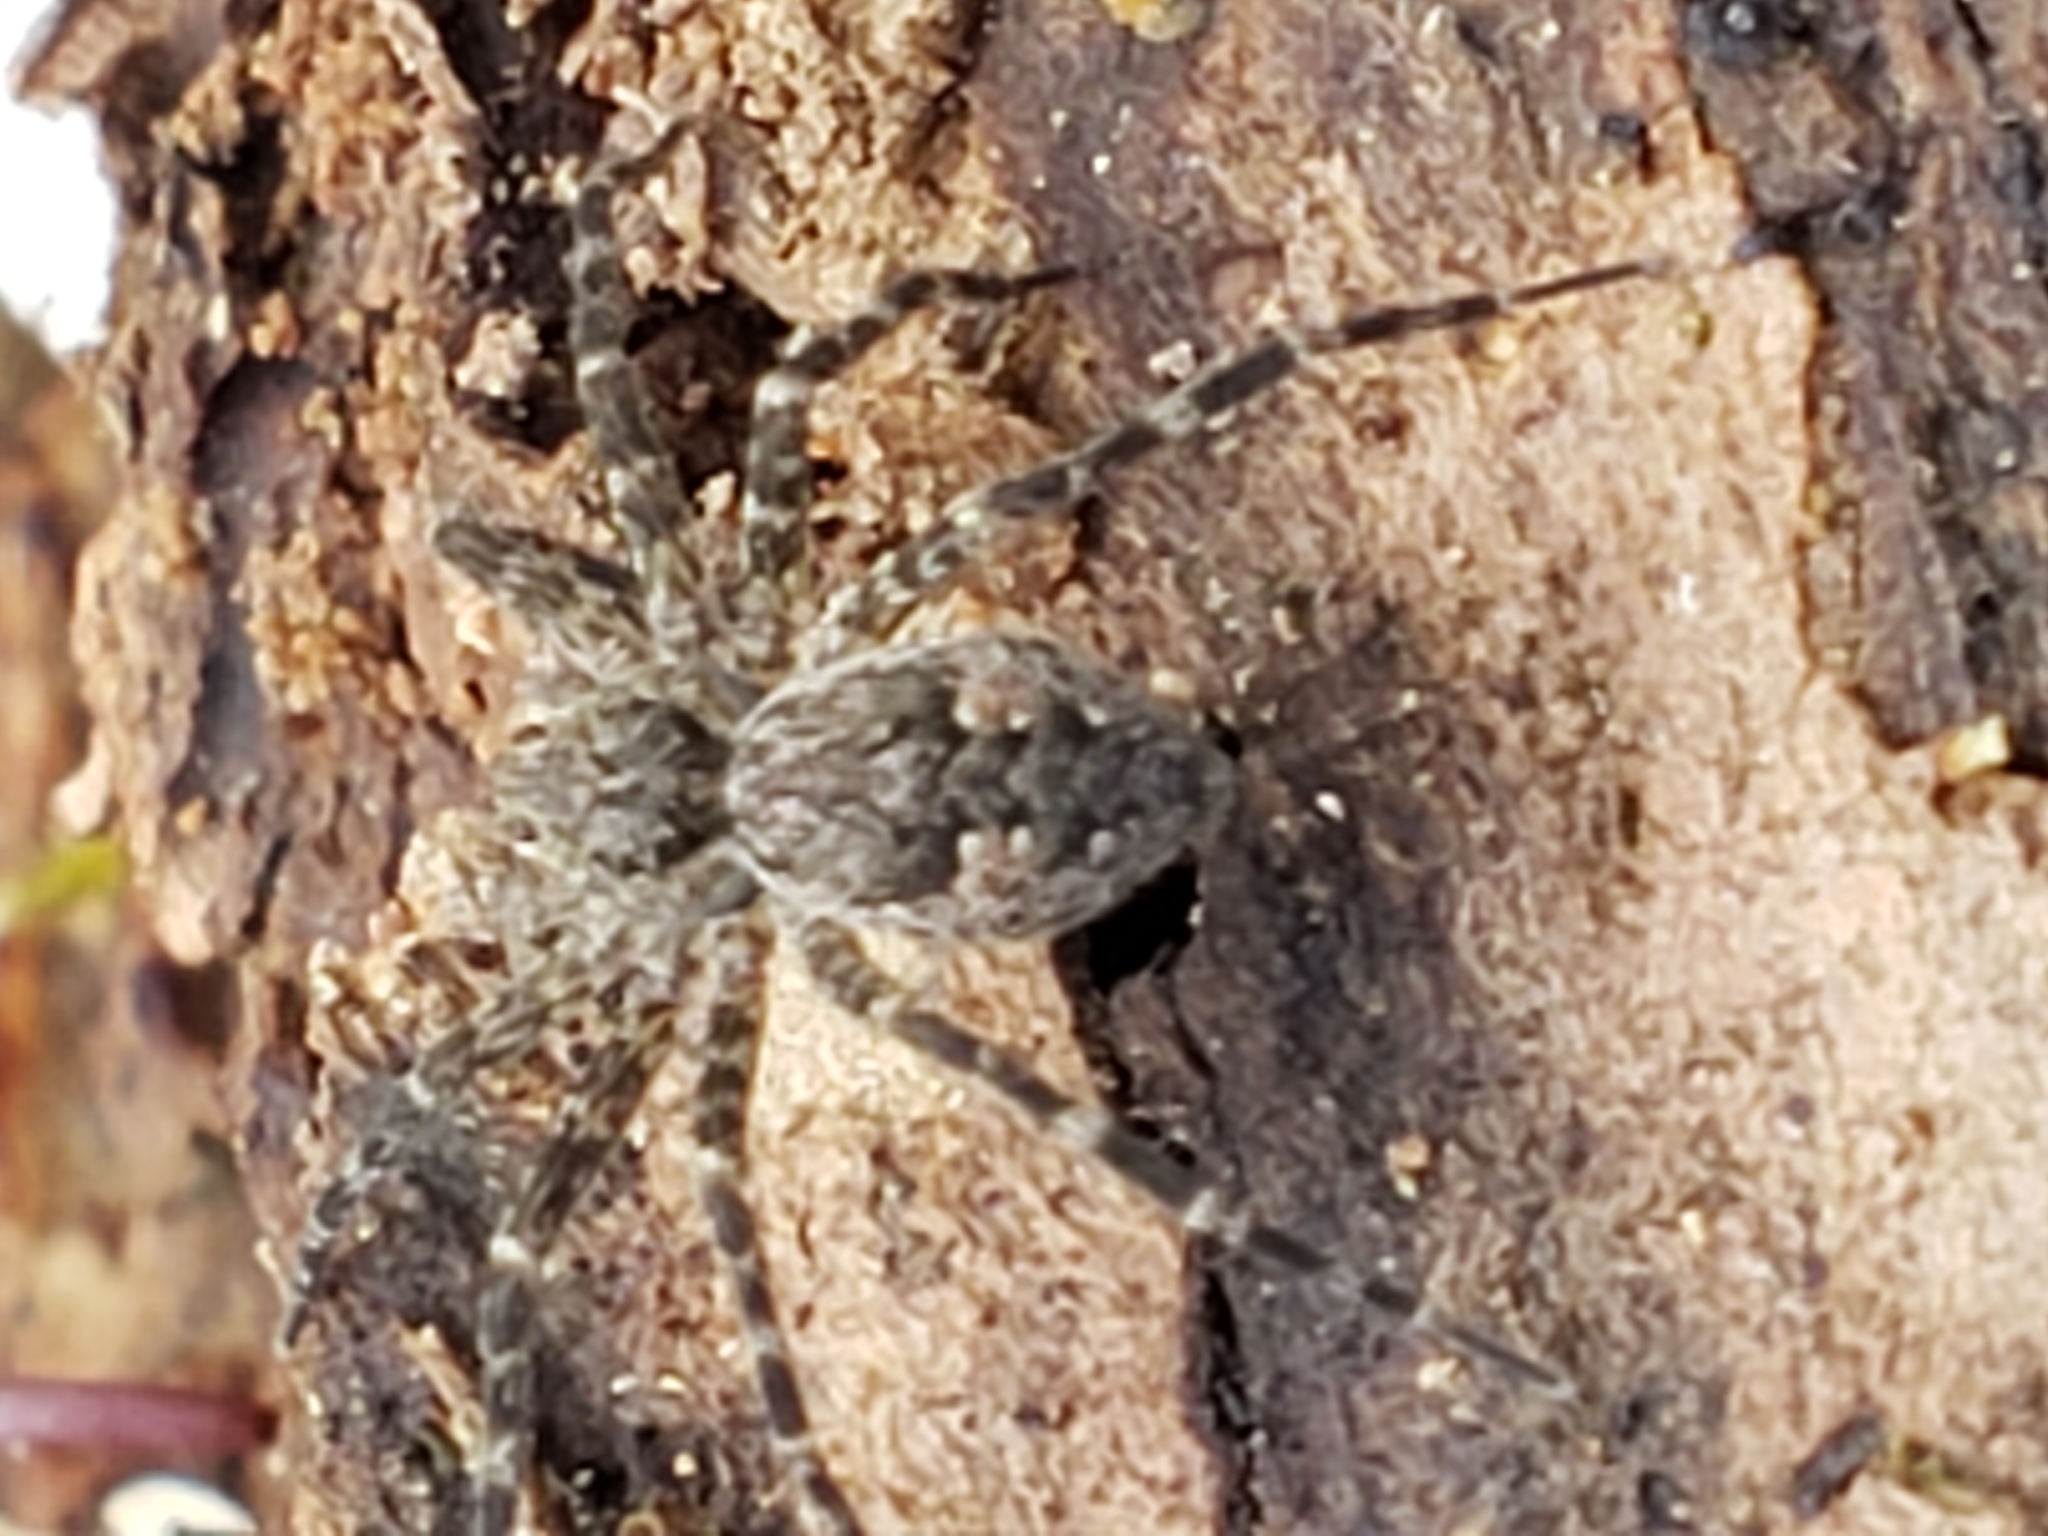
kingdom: Animalia
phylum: Arthropoda
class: Arachnida
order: Araneae
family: Pisauridae
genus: Dolomedes
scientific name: Dolomedes tenebrosus
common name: Dark fishing spider
